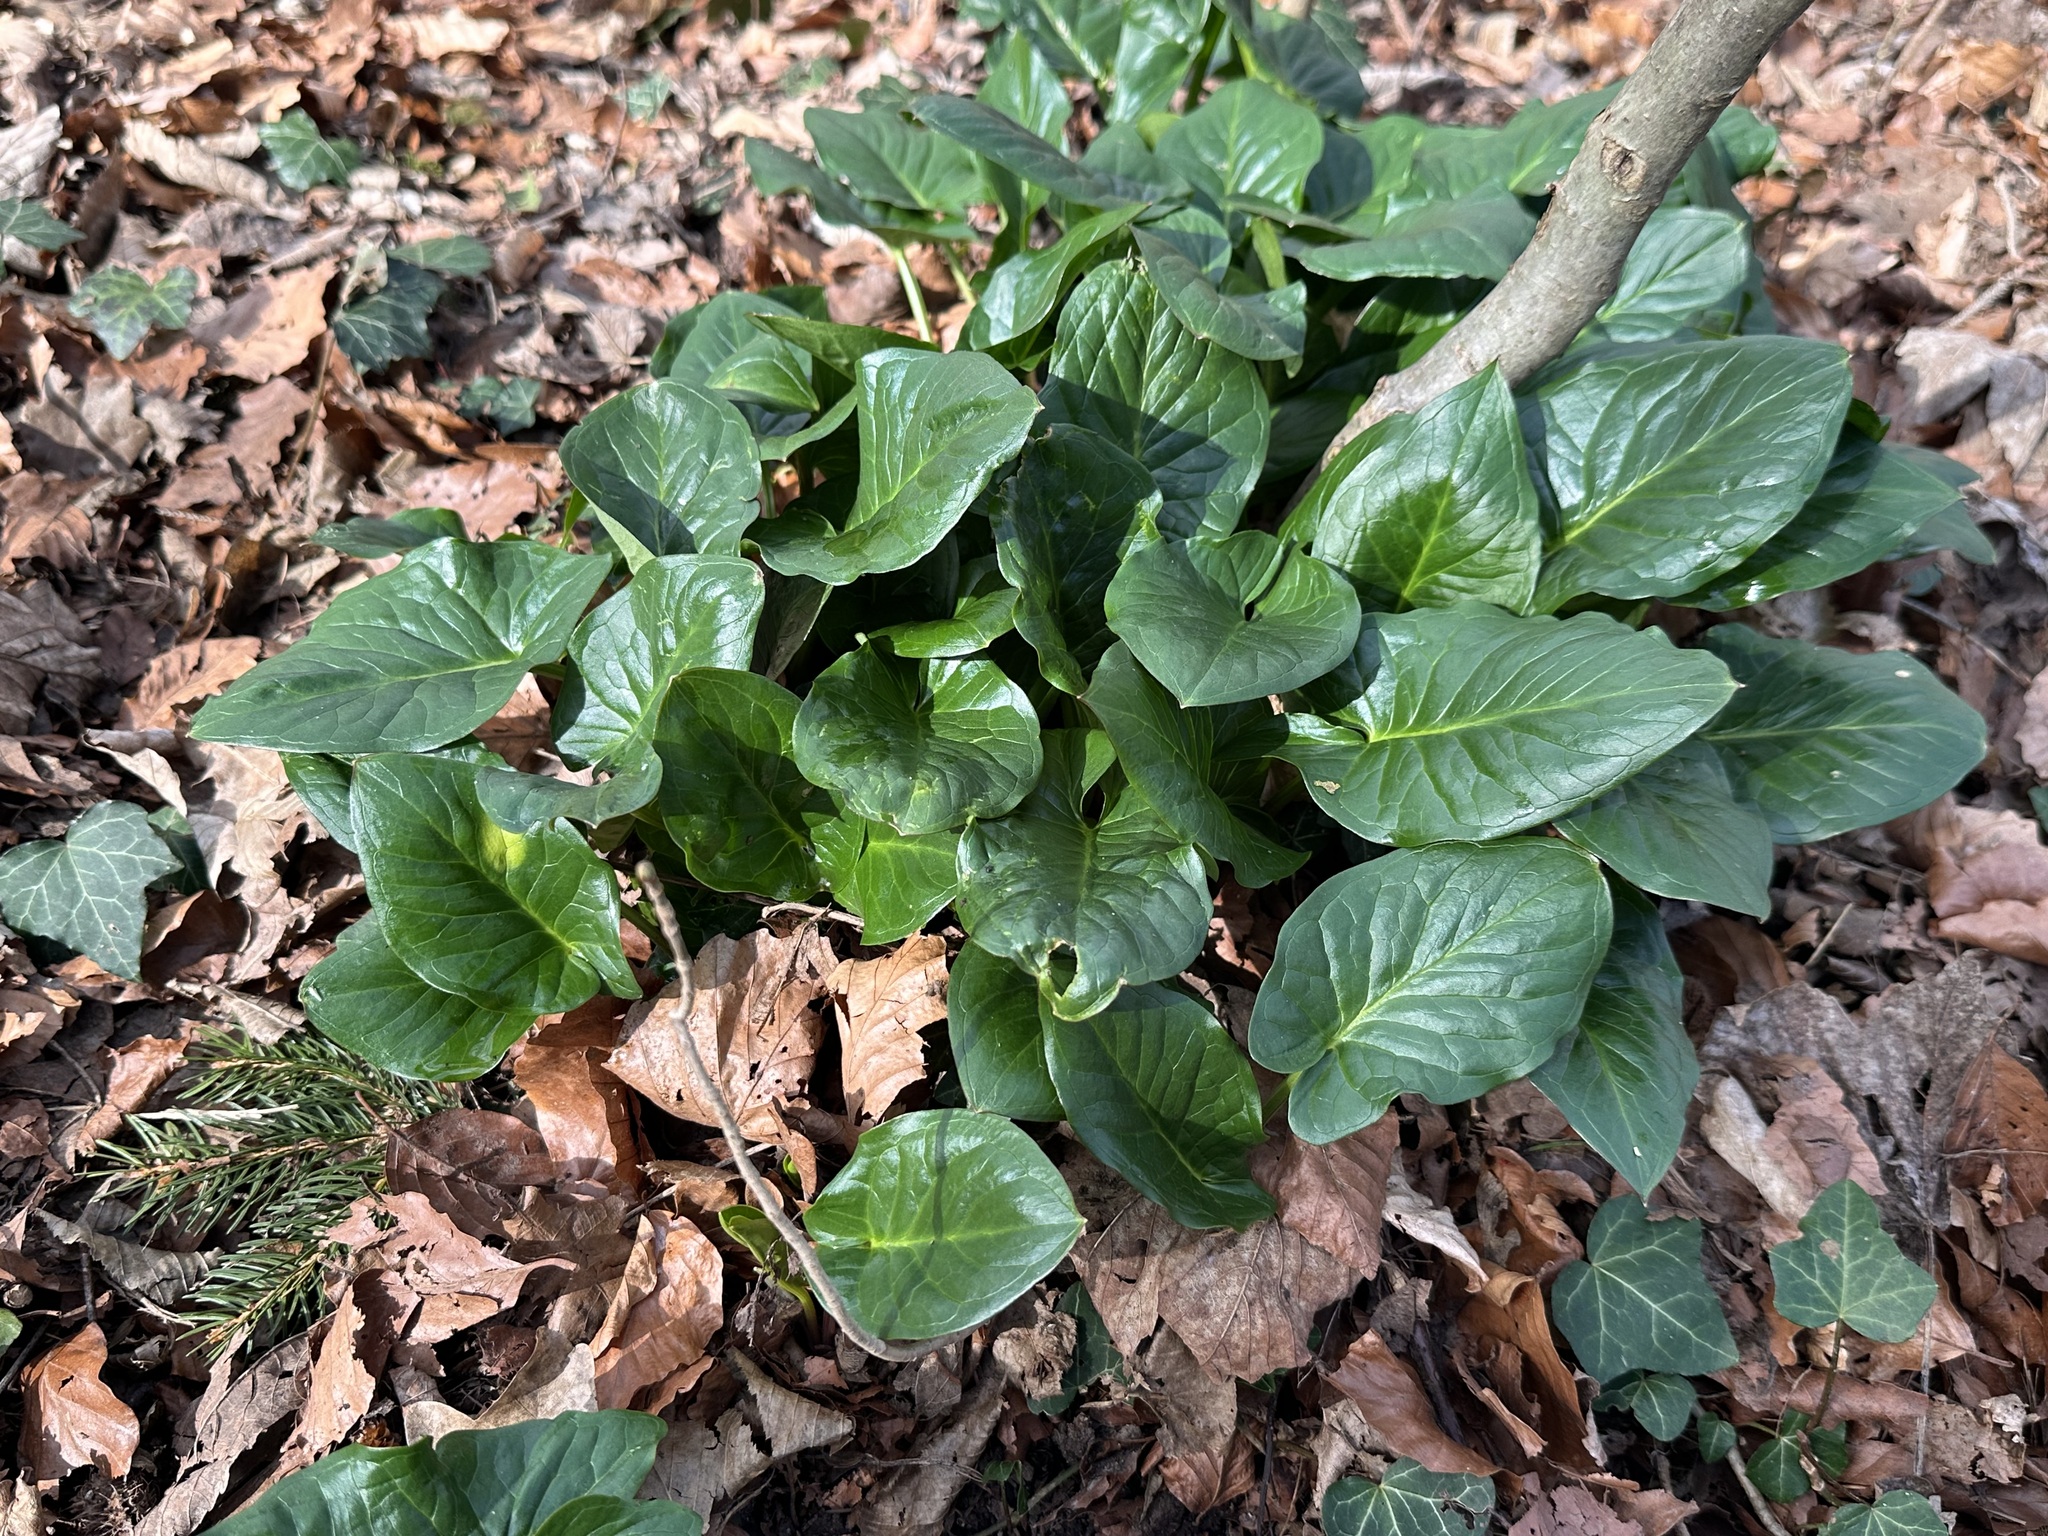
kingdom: Plantae
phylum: Tracheophyta
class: Liliopsida
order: Alismatales
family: Araceae
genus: Arum
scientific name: Arum maculatum
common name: Lords-and-ladies
